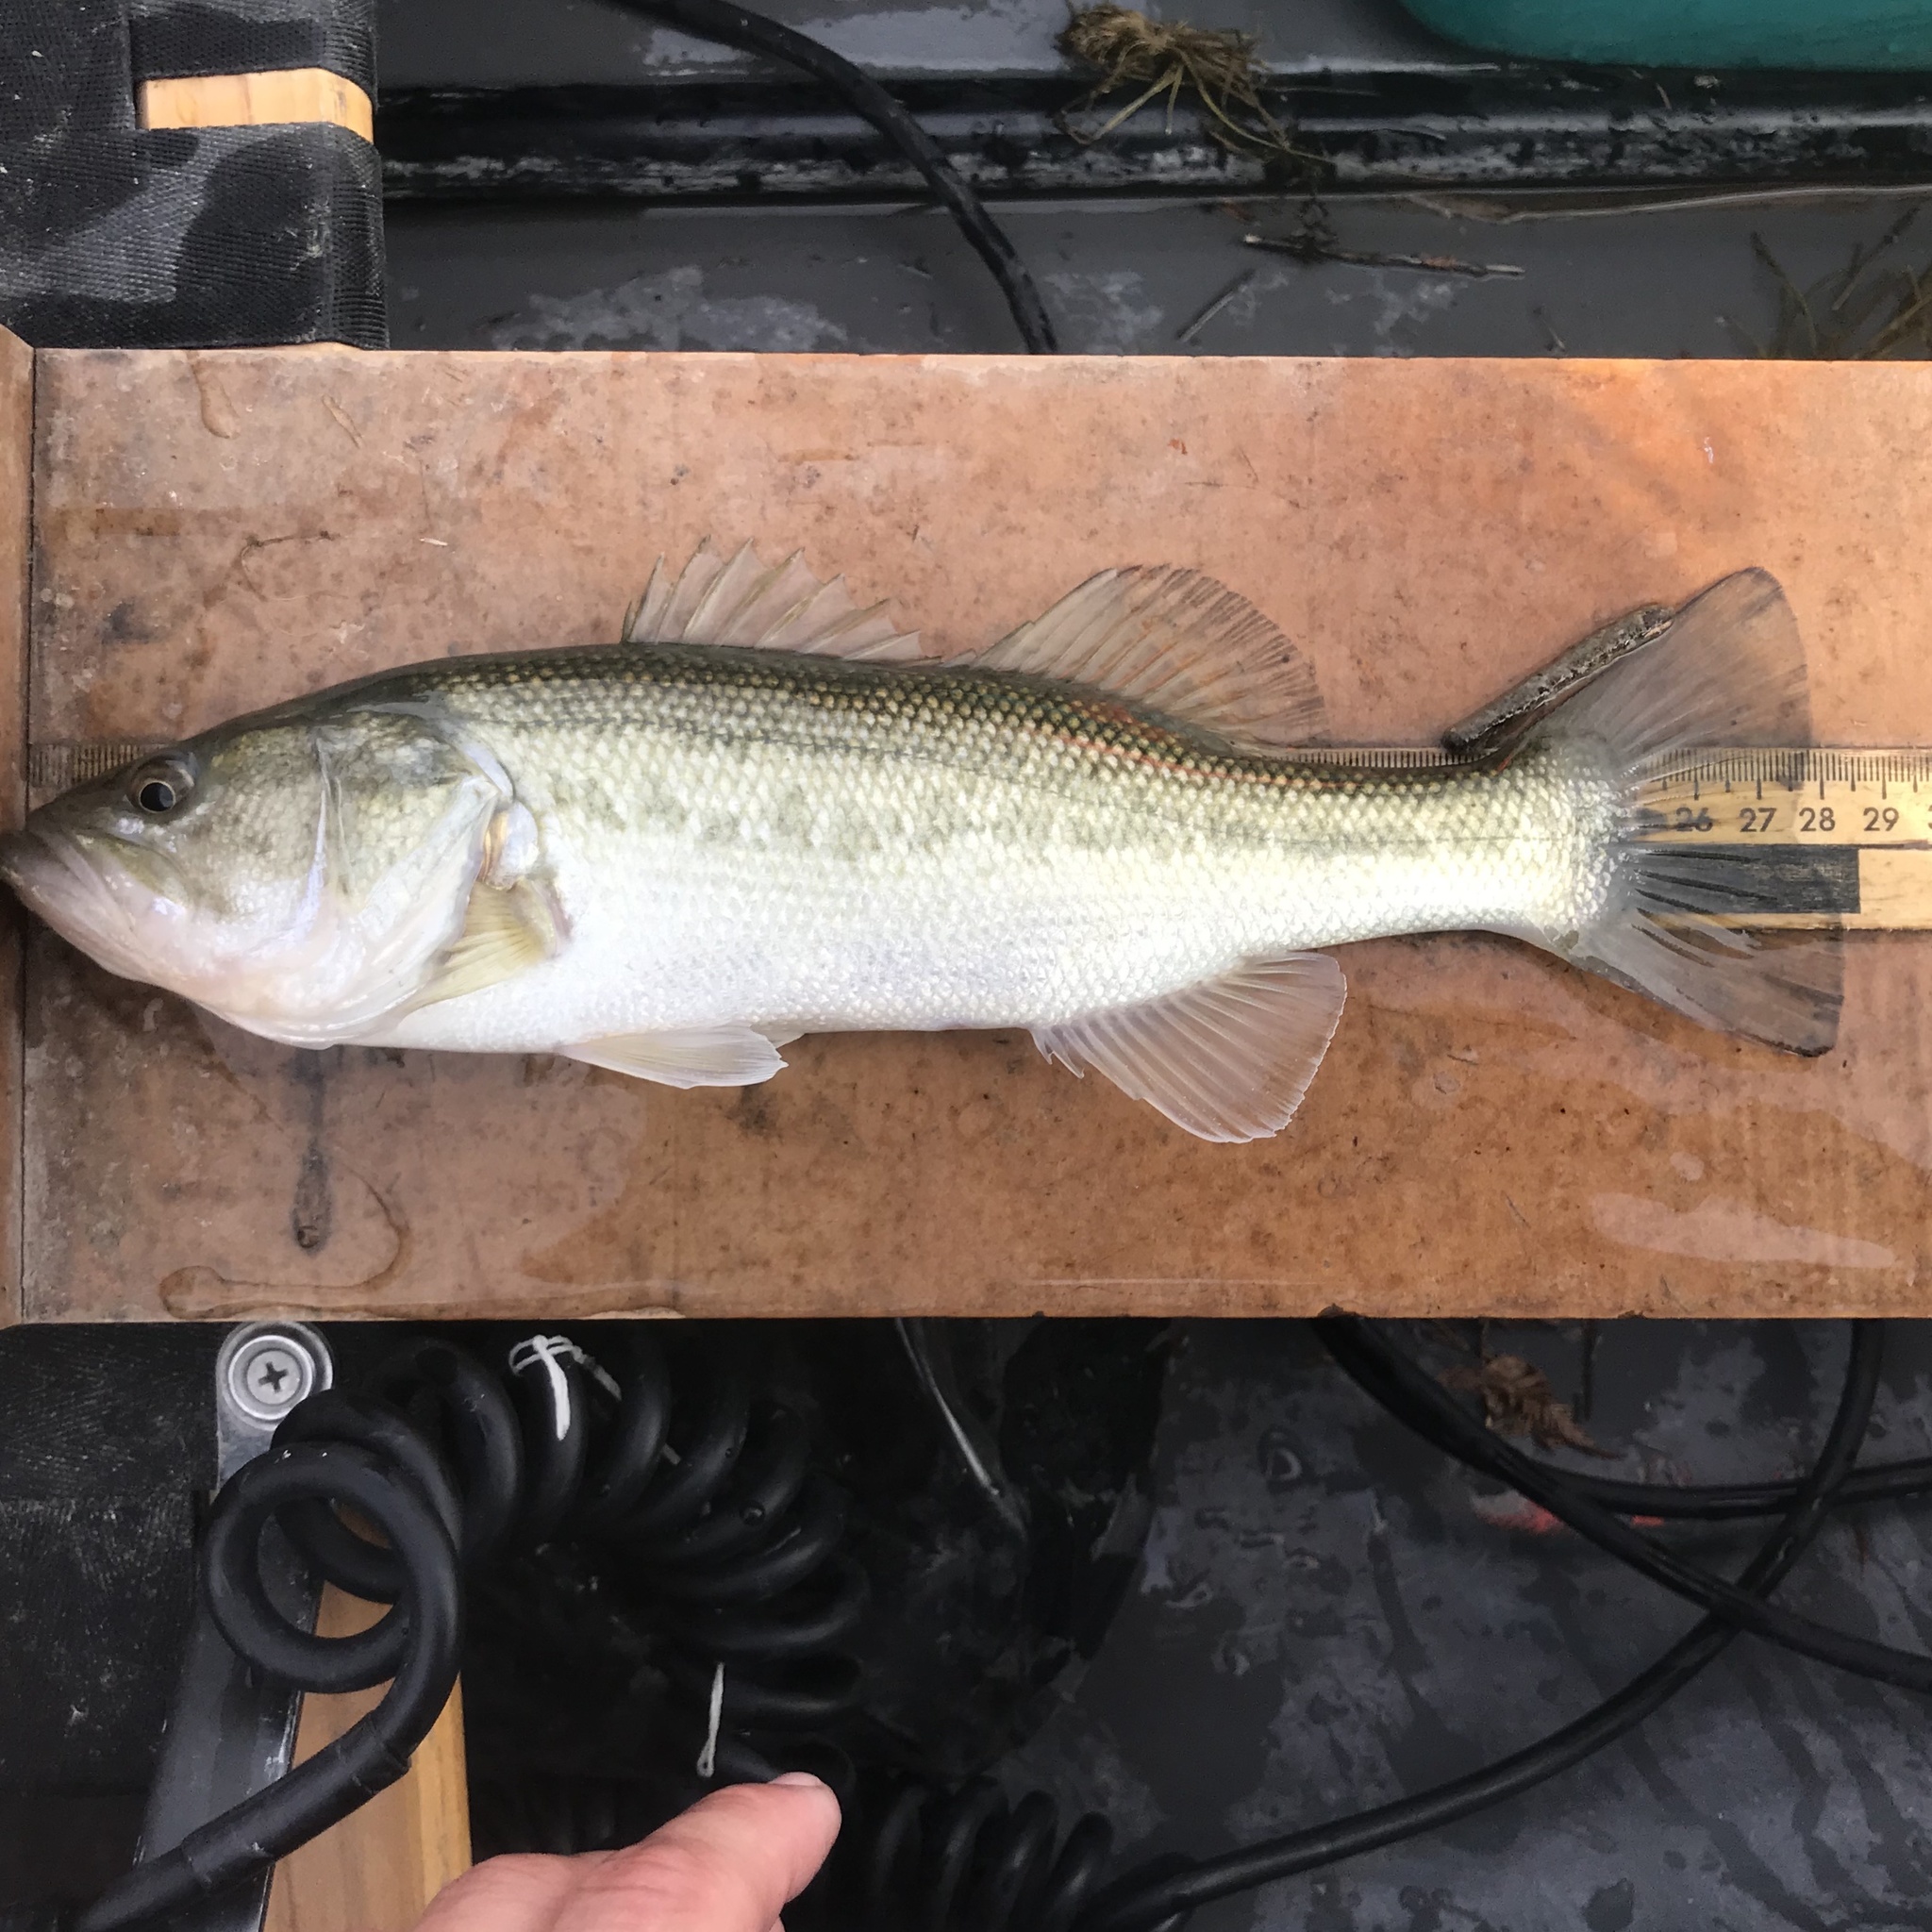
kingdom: Animalia
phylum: Chordata
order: Perciformes
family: Centrarchidae
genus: Micropterus
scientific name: Micropterus
